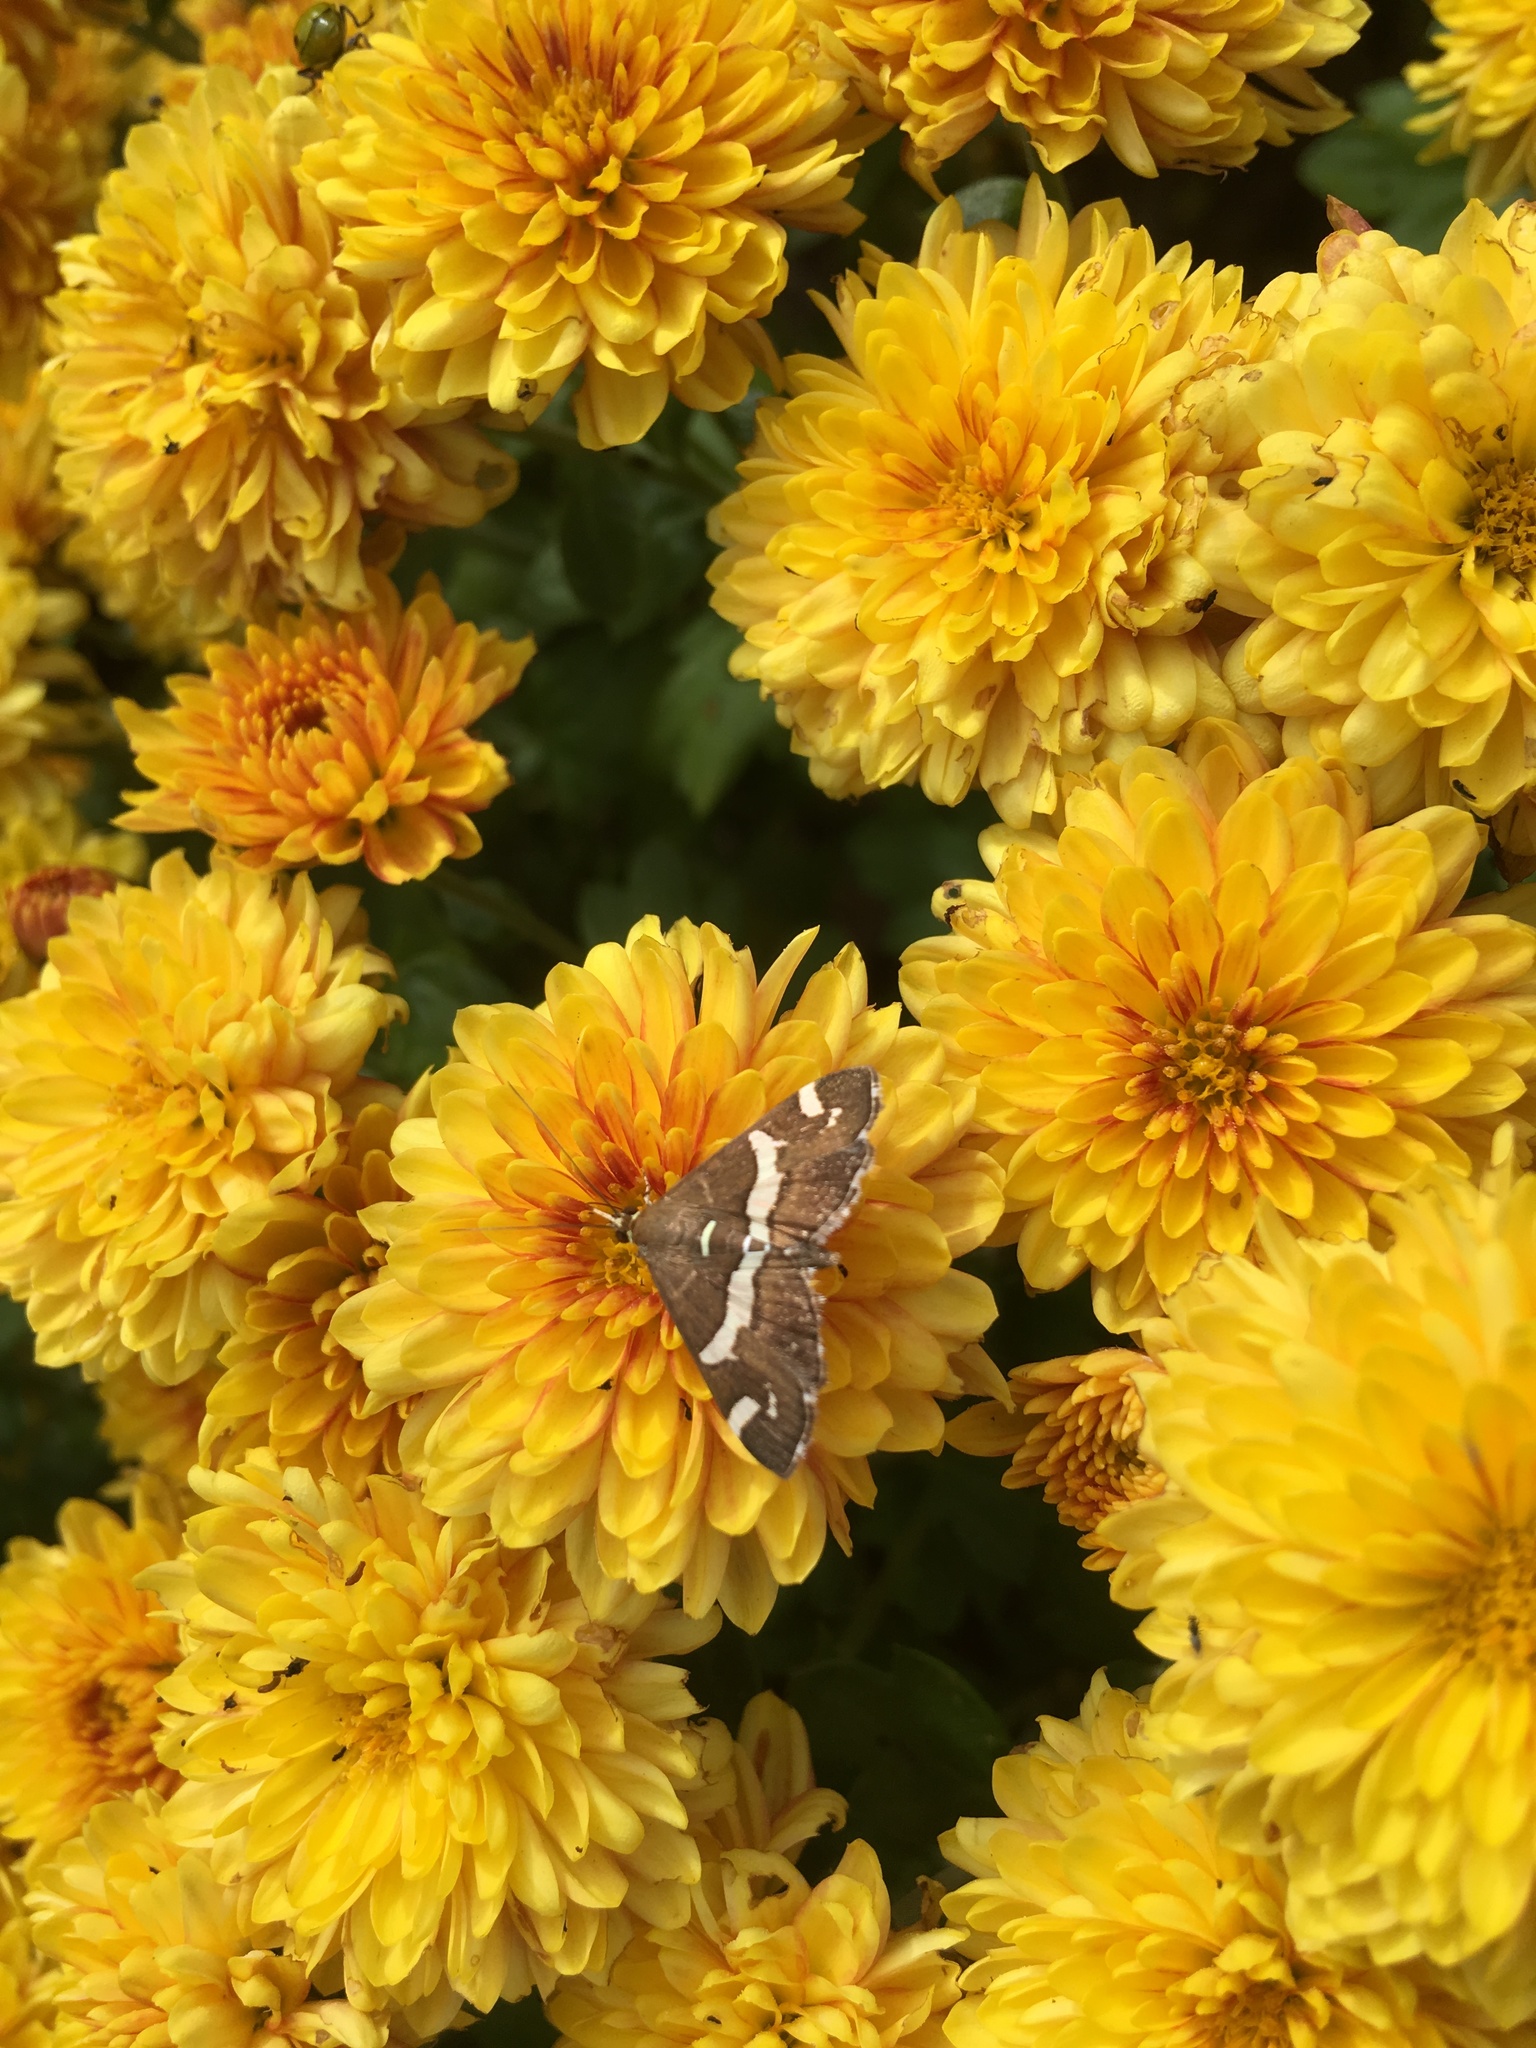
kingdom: Animalia
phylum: Arthropoda
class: Insecta
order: Lepidoptera
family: Crambidae
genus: Spoladea
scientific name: Spoladea recurvalis
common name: Beet webworm moth
